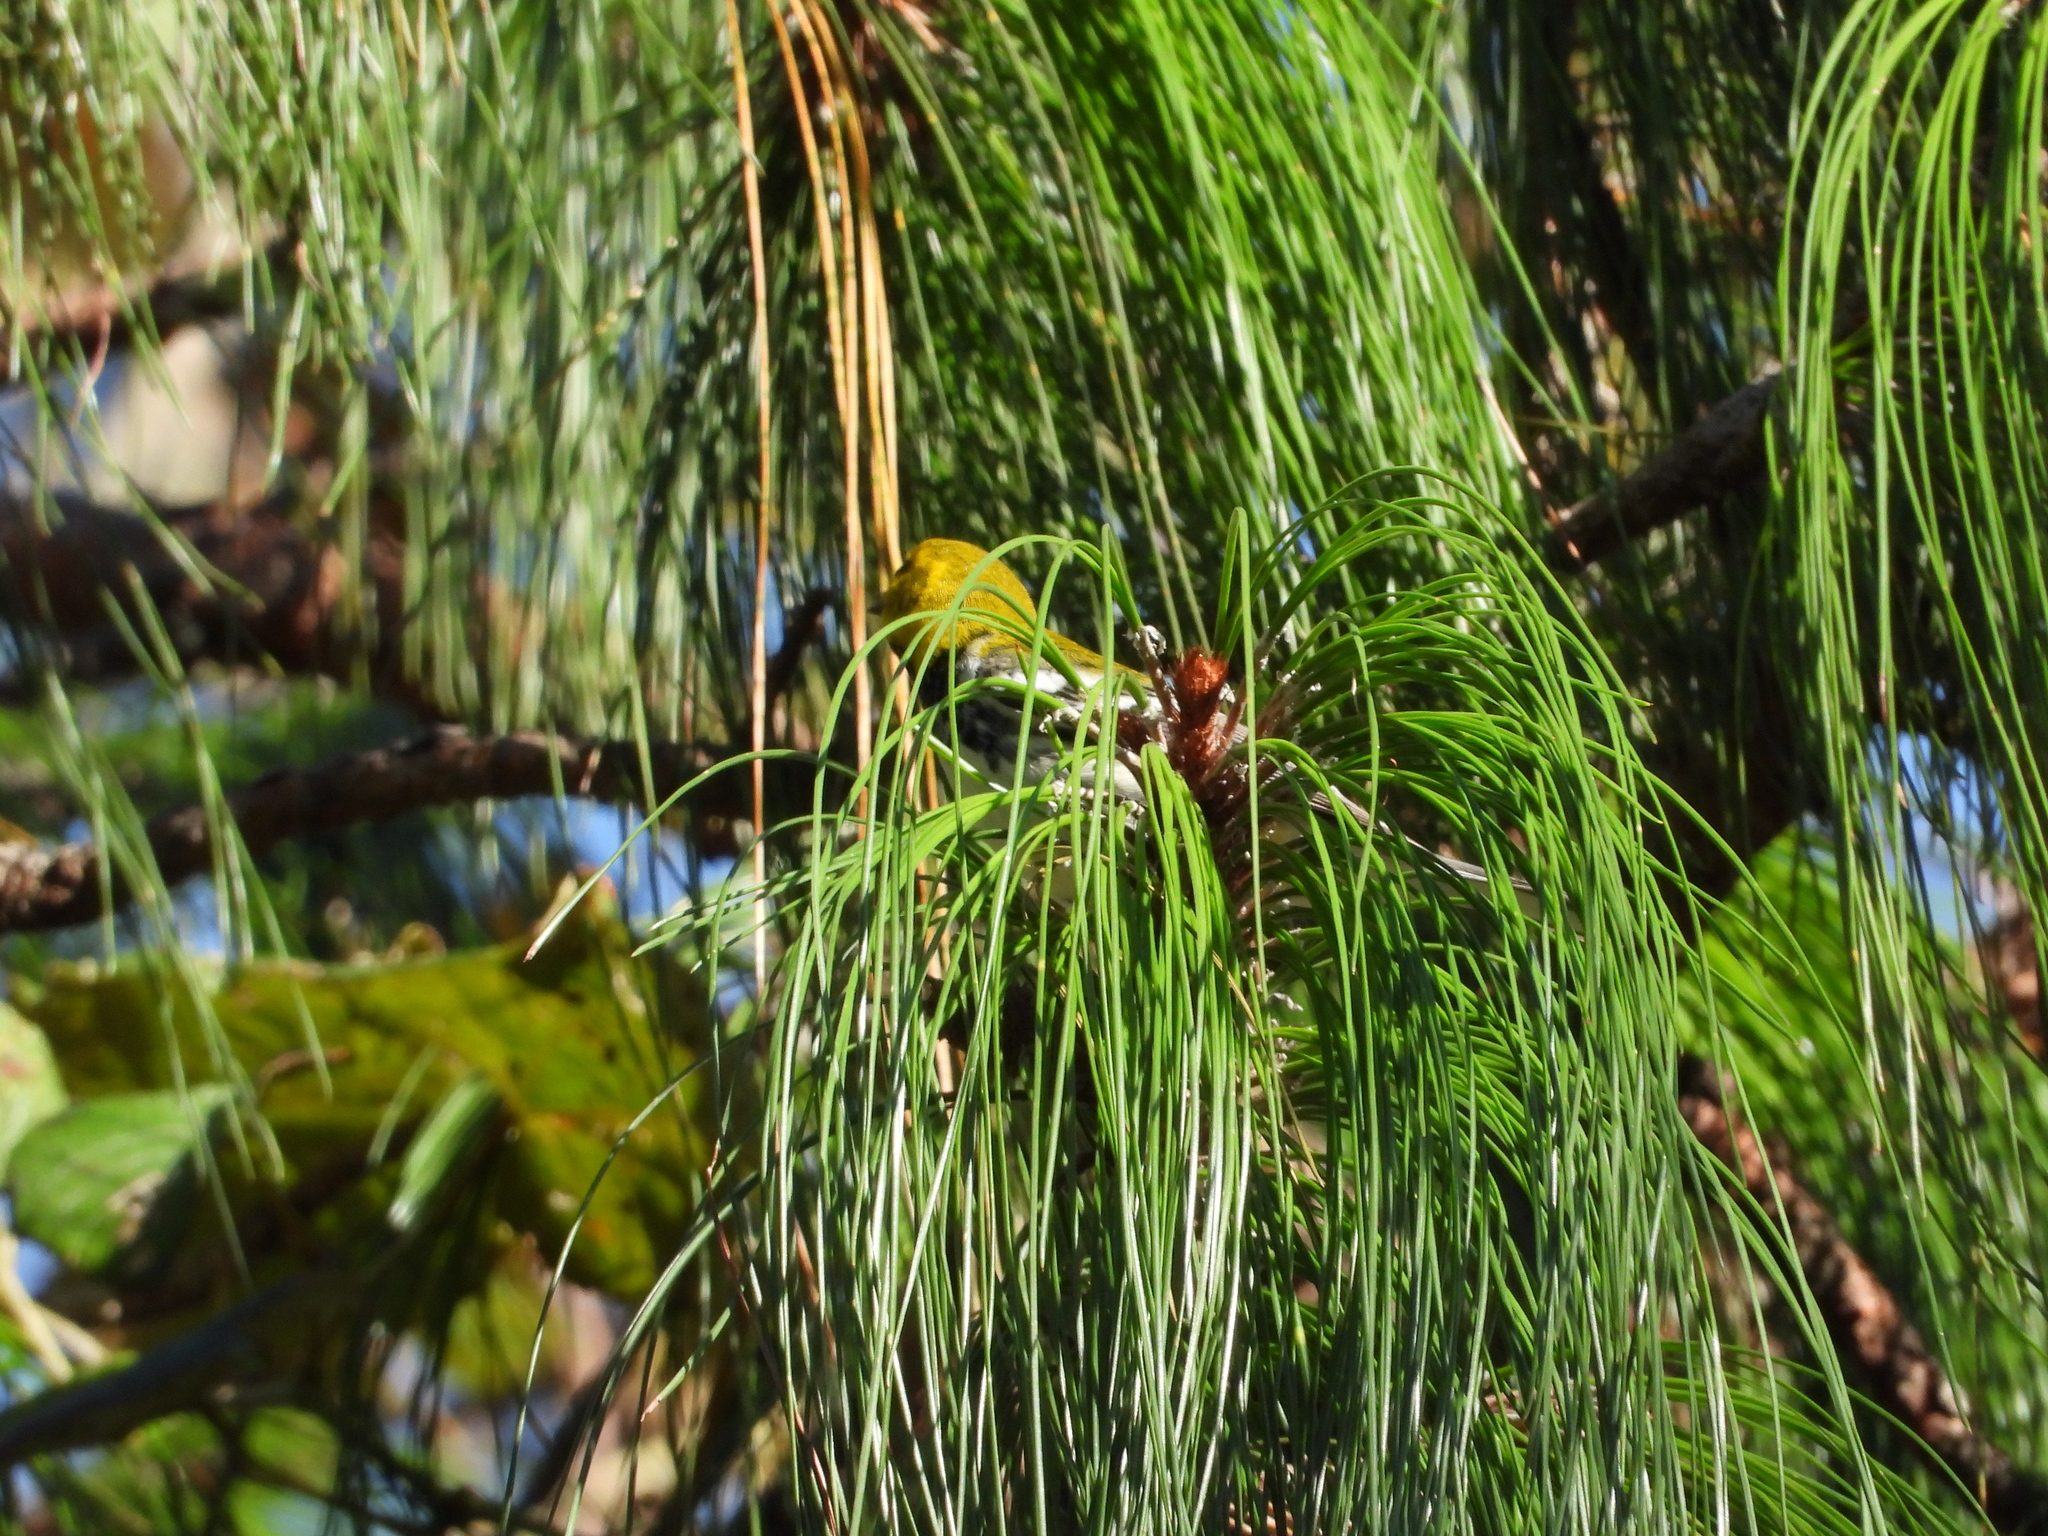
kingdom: Animalia
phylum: Chordata
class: Aves
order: Passeriformes
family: Parulidae
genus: Setophaga
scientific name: Setophaga virens
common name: Black-throated green warbler
